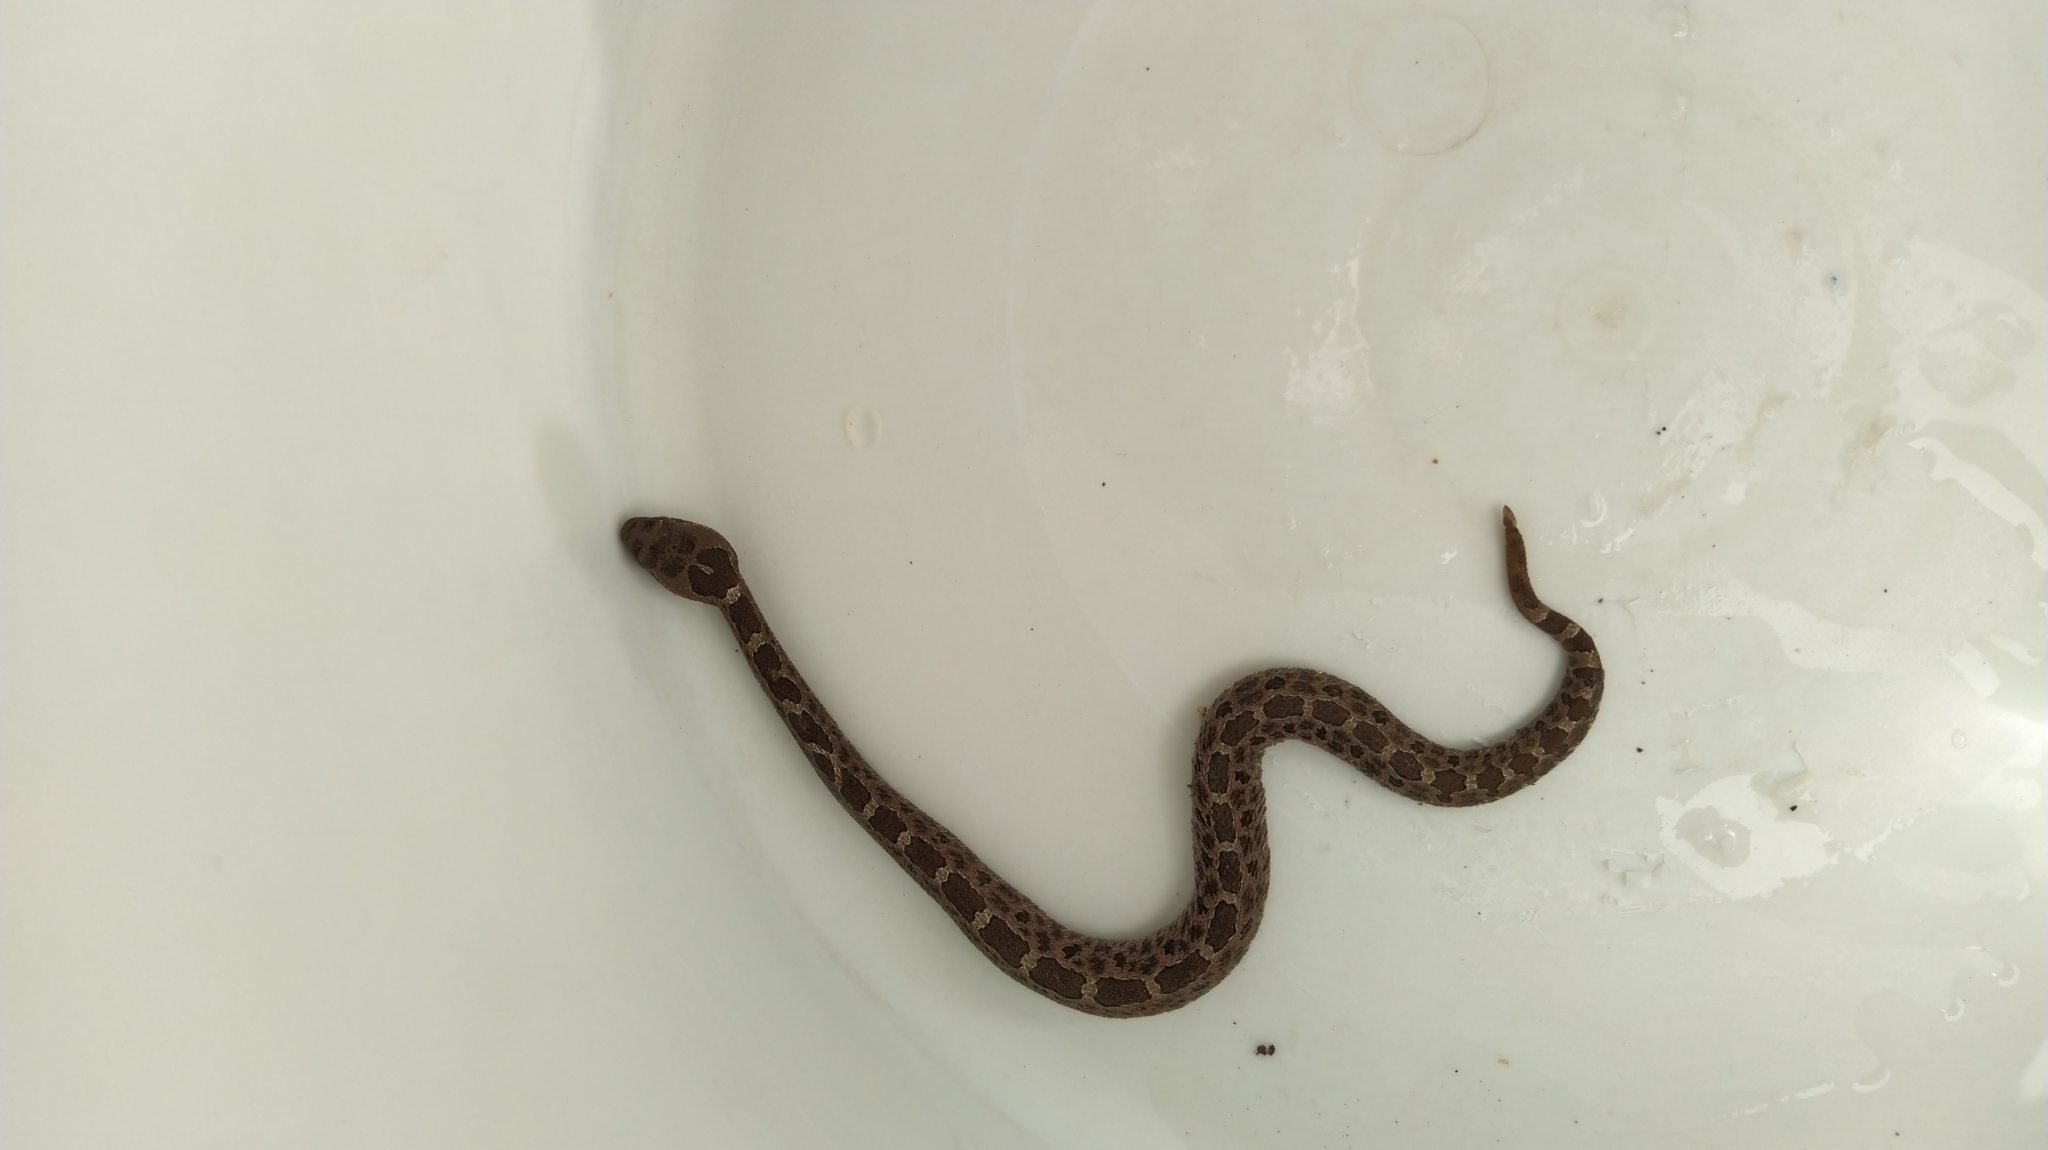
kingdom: Animalia
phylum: Chordata
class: Squamata
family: Viperidae
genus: Crotalus
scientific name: Crotalus aquilus
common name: Queretaran dusky rattlesnake
